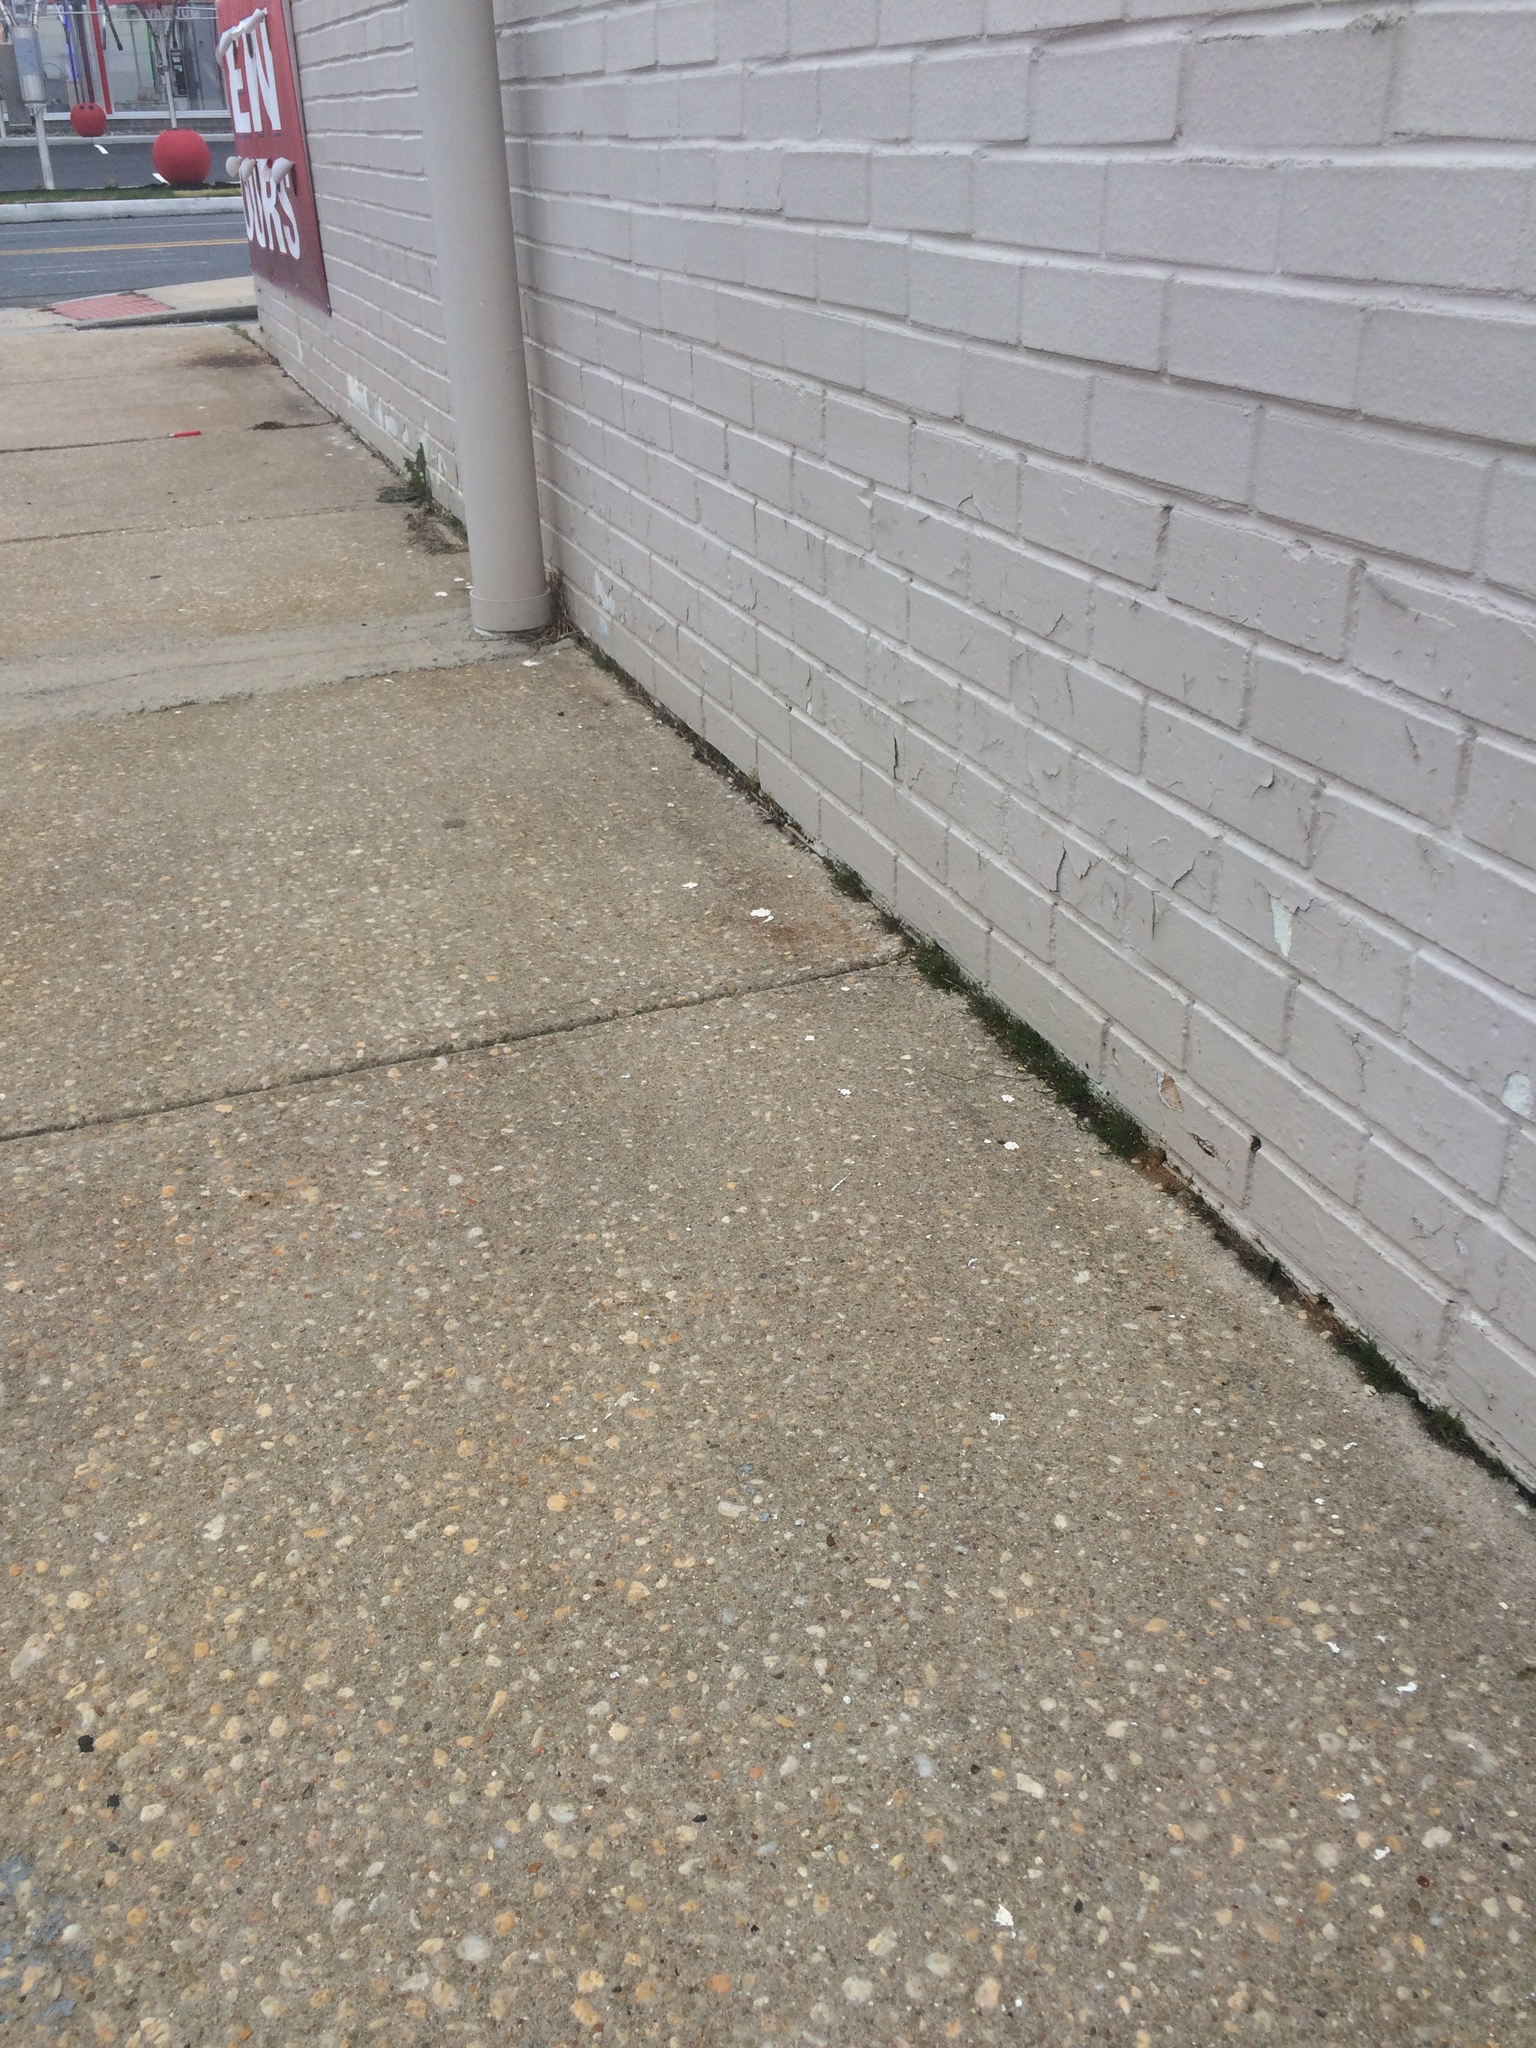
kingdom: Plantae
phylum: Bryophyta
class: Bryopsida
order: Funariales
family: Funariaceae
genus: Funaria
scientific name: Funaria hygrometrica
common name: Common cord moss
